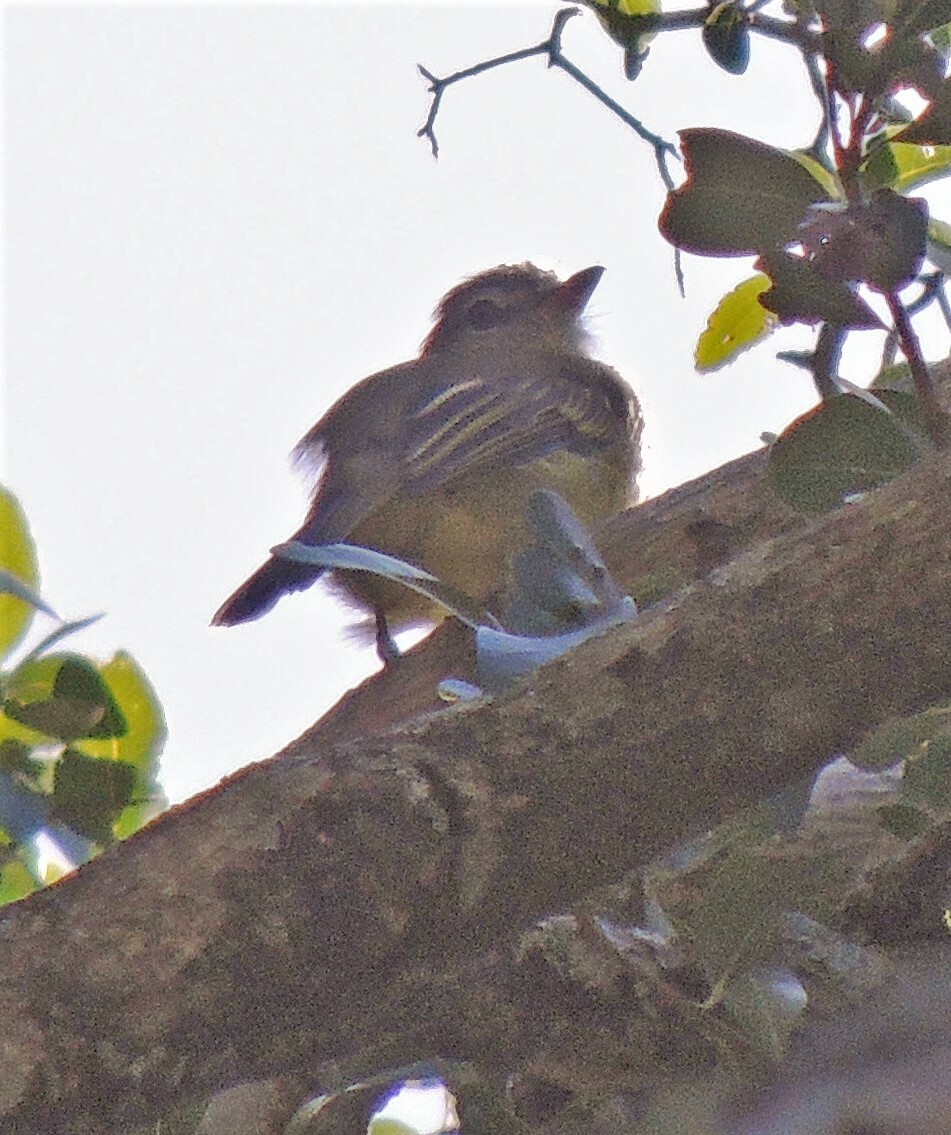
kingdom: Animalia
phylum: Chordata
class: Aves
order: Passeriformes
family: Tyrannidae
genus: Tolmomyias
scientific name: Tolmomyias sulphurescens
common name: Yellow-olive flycatcher
